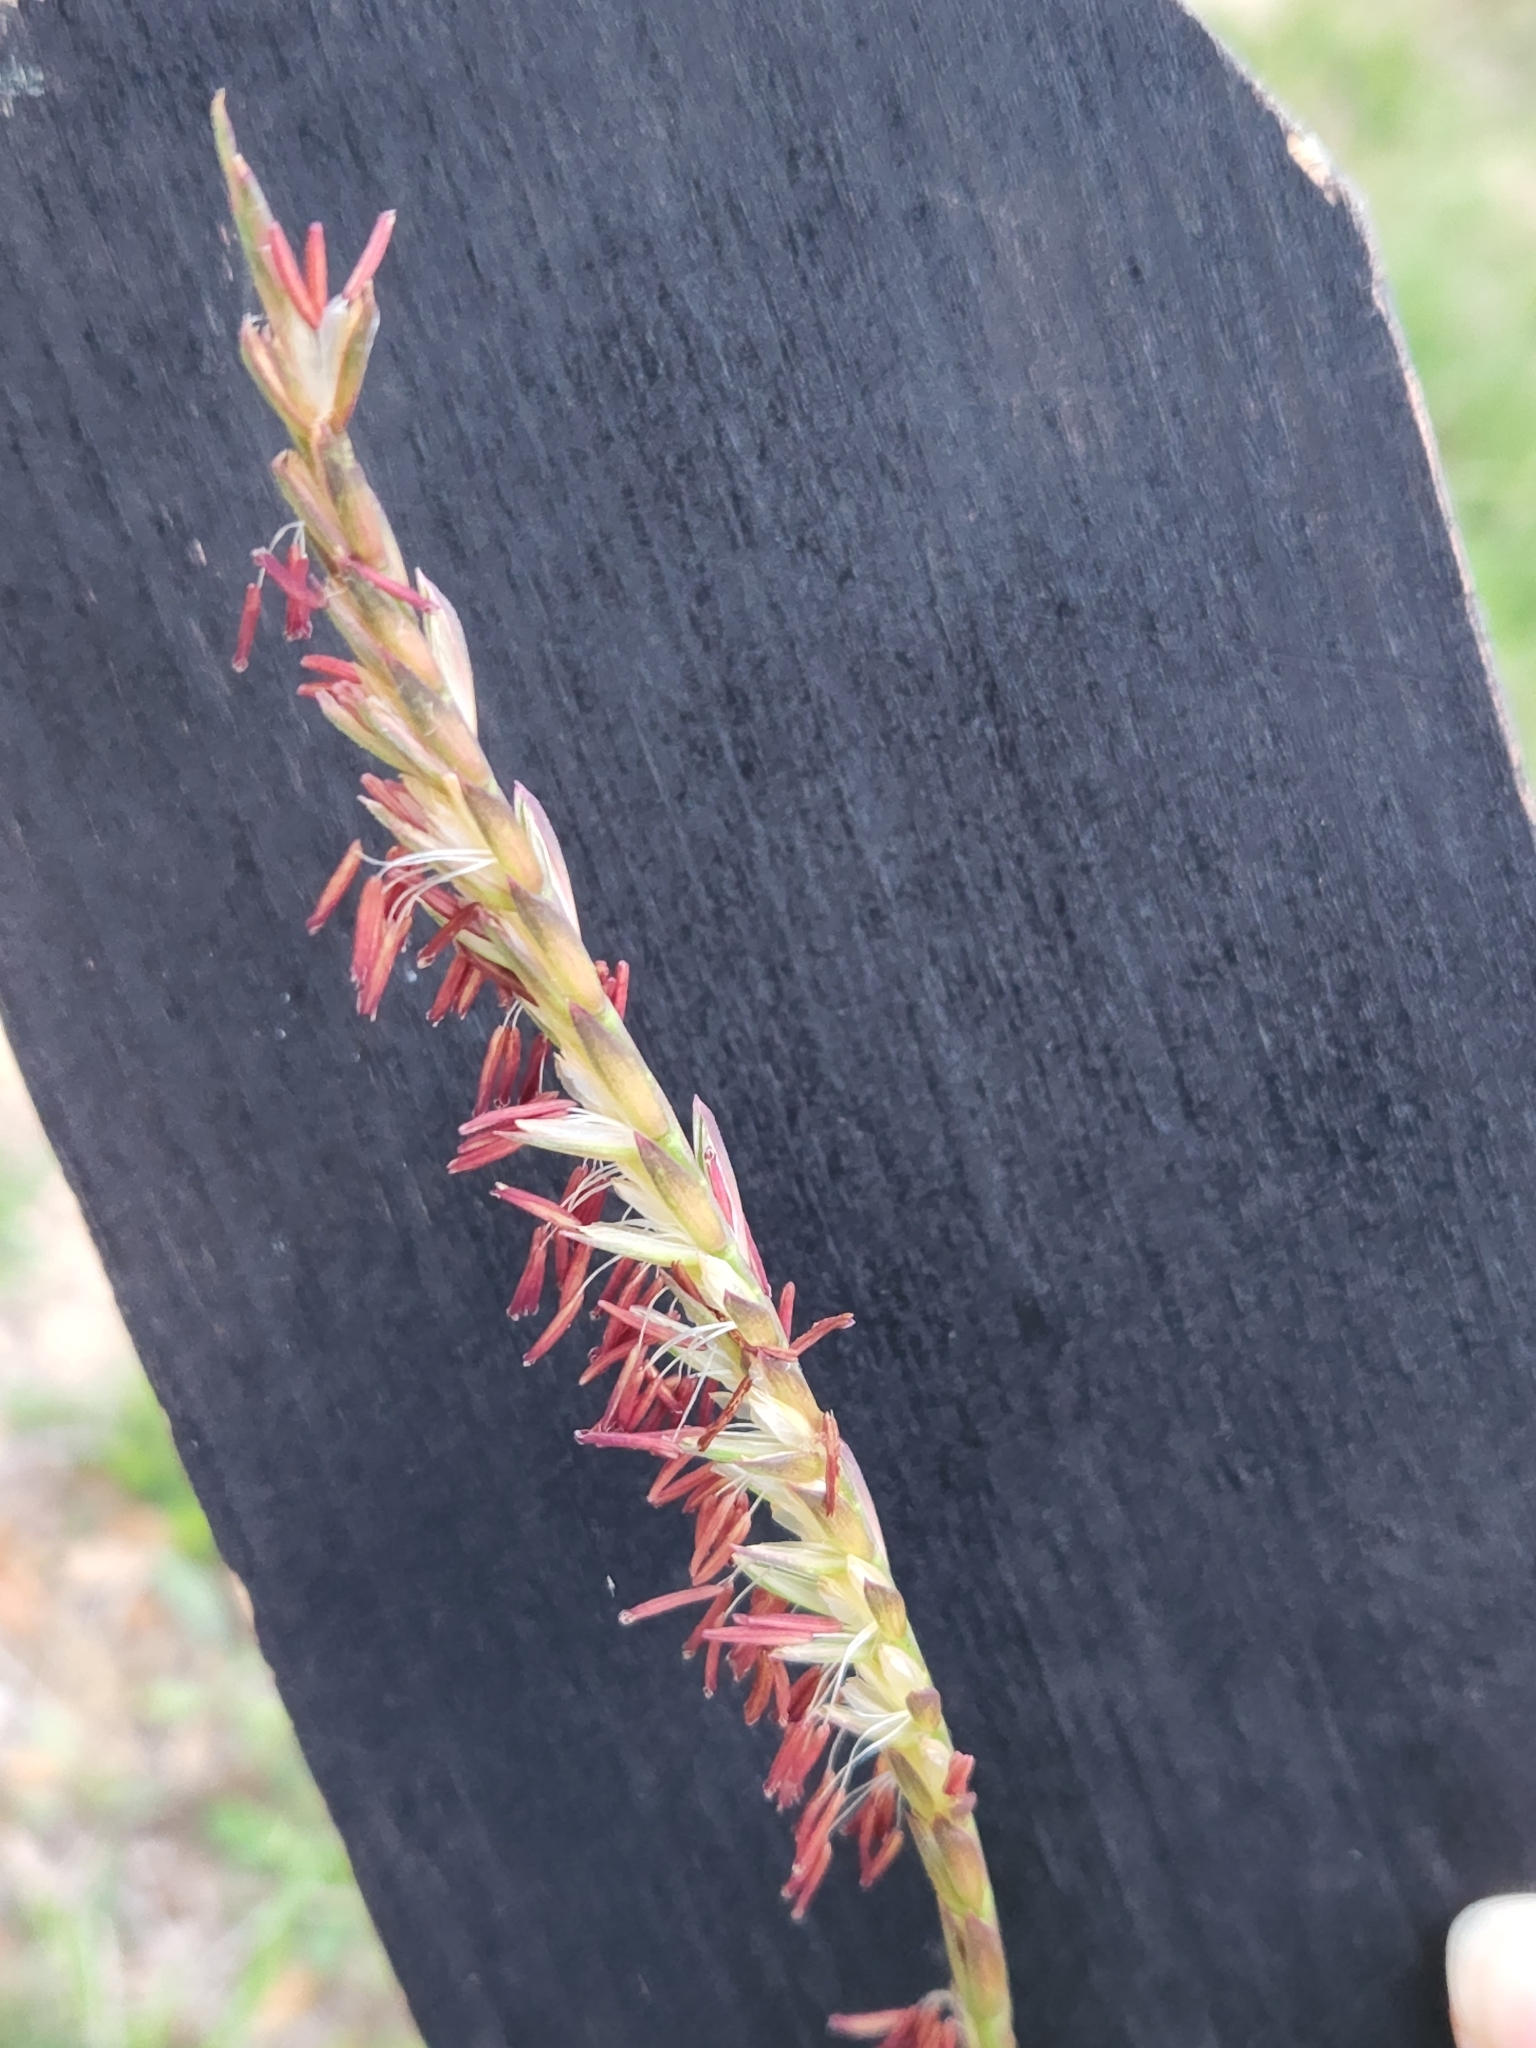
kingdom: Plantae
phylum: Tracheophyta
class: Liliopsida
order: Poales
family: Poaceae
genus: Tripsacum
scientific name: Tripsacum dactyloides
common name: Buffalo-grass
